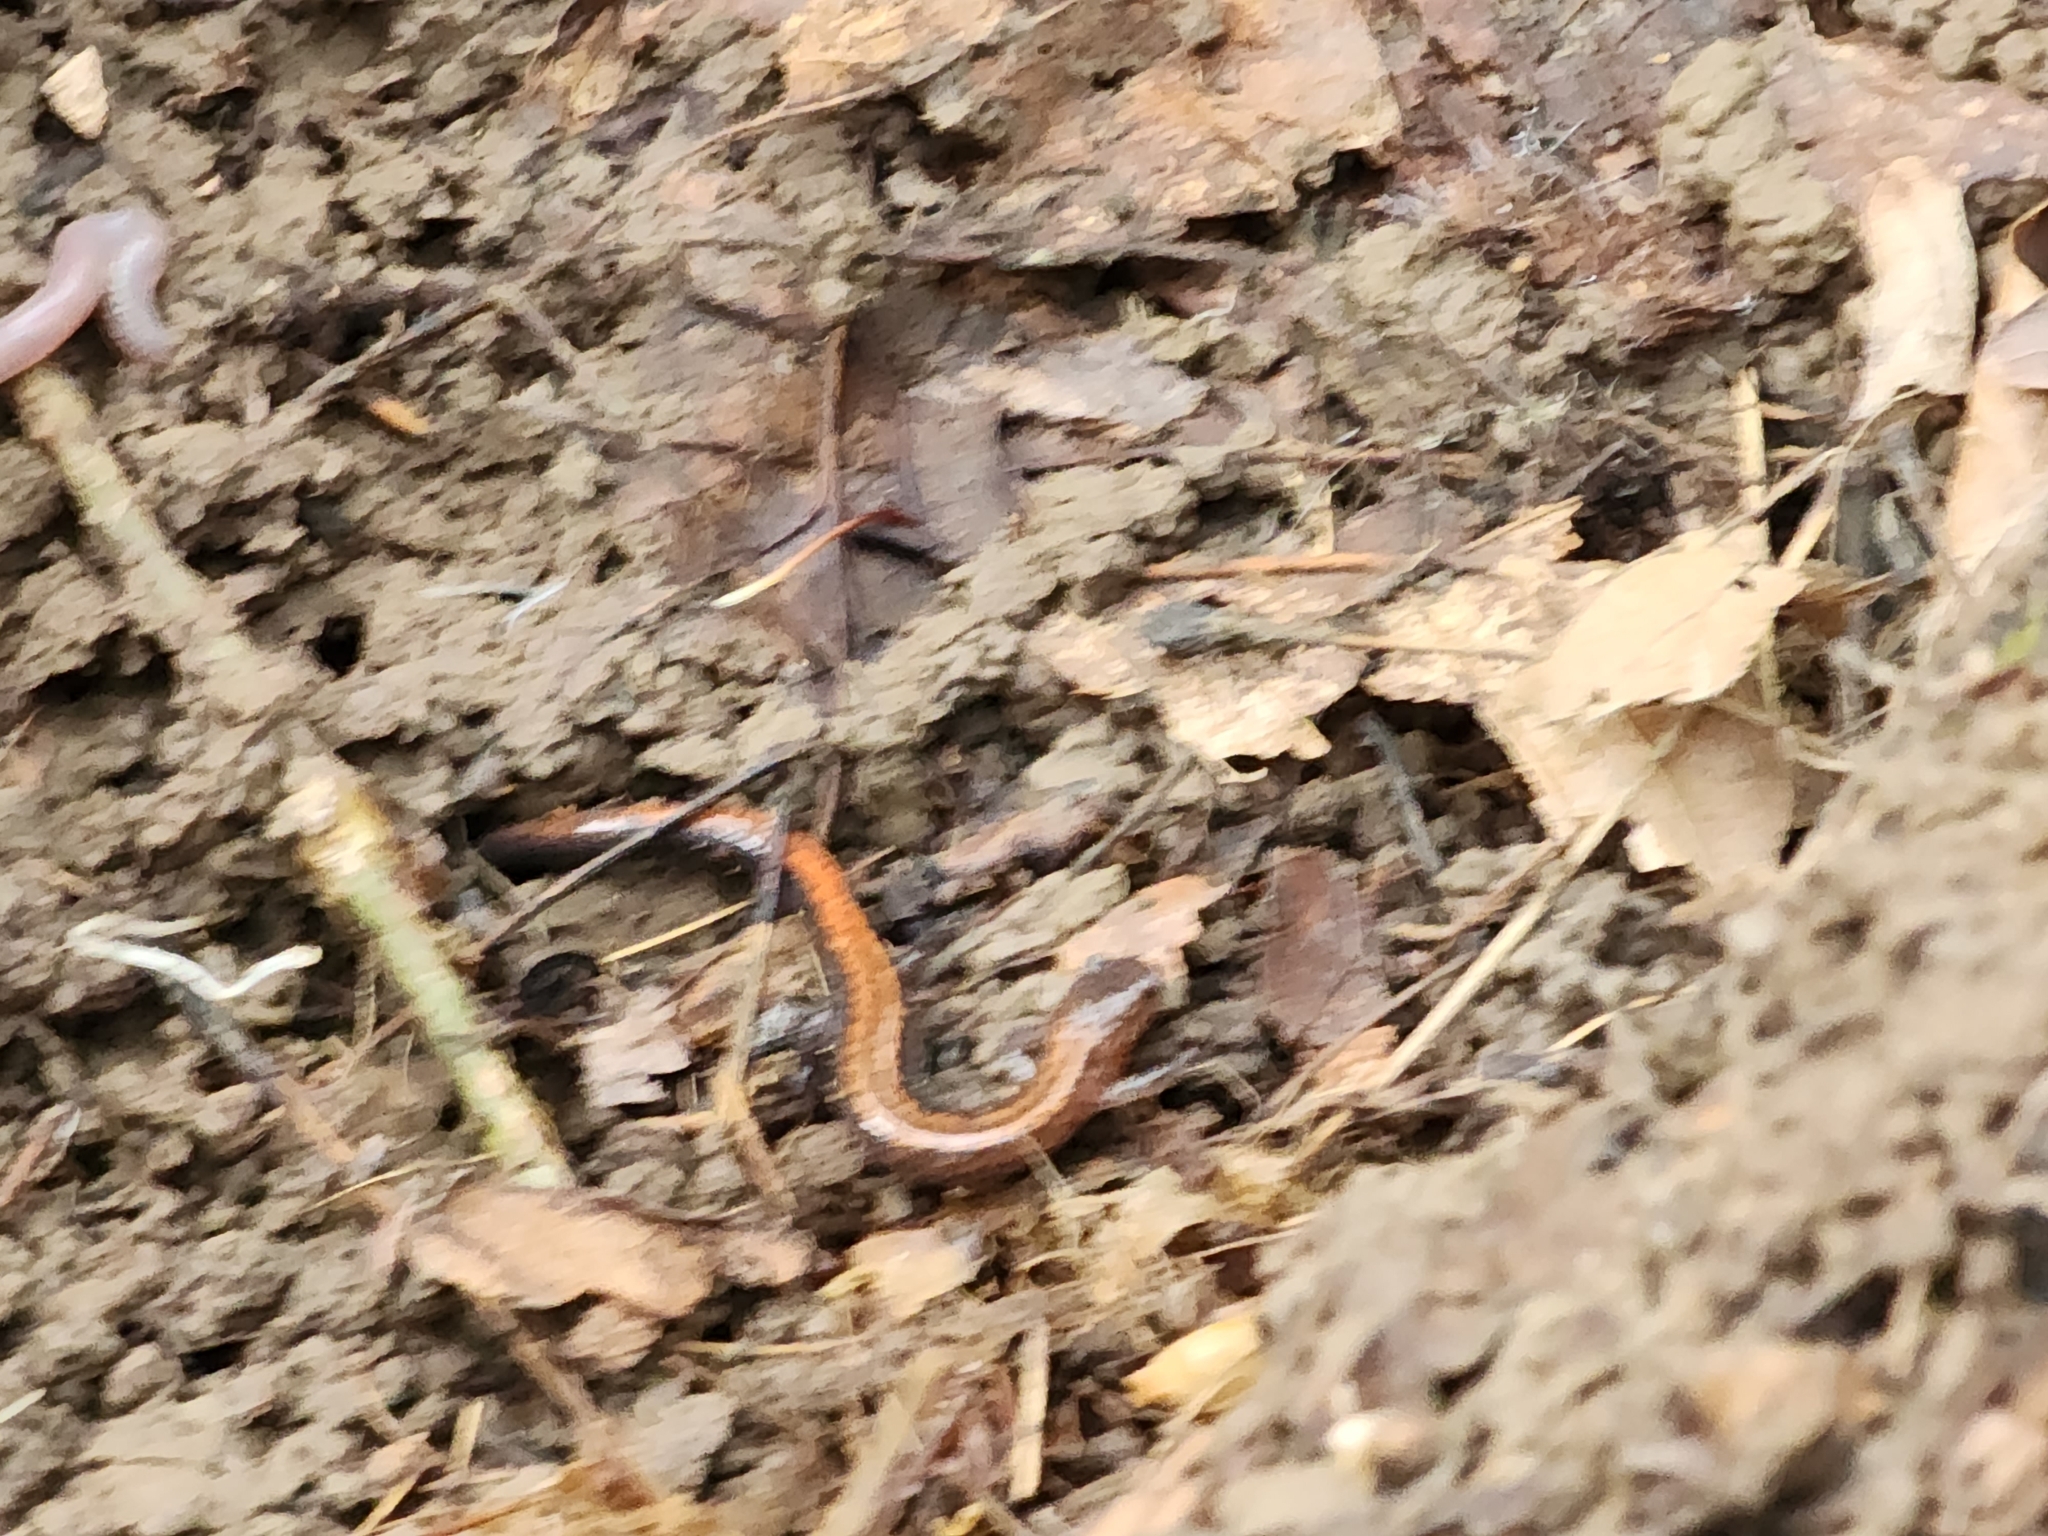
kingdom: Animalia
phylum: Chordata
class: Amphibia
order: Caudata
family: Plethodontidae
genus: Plethodon
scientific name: Plethodon cinereus
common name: Redback salamander
